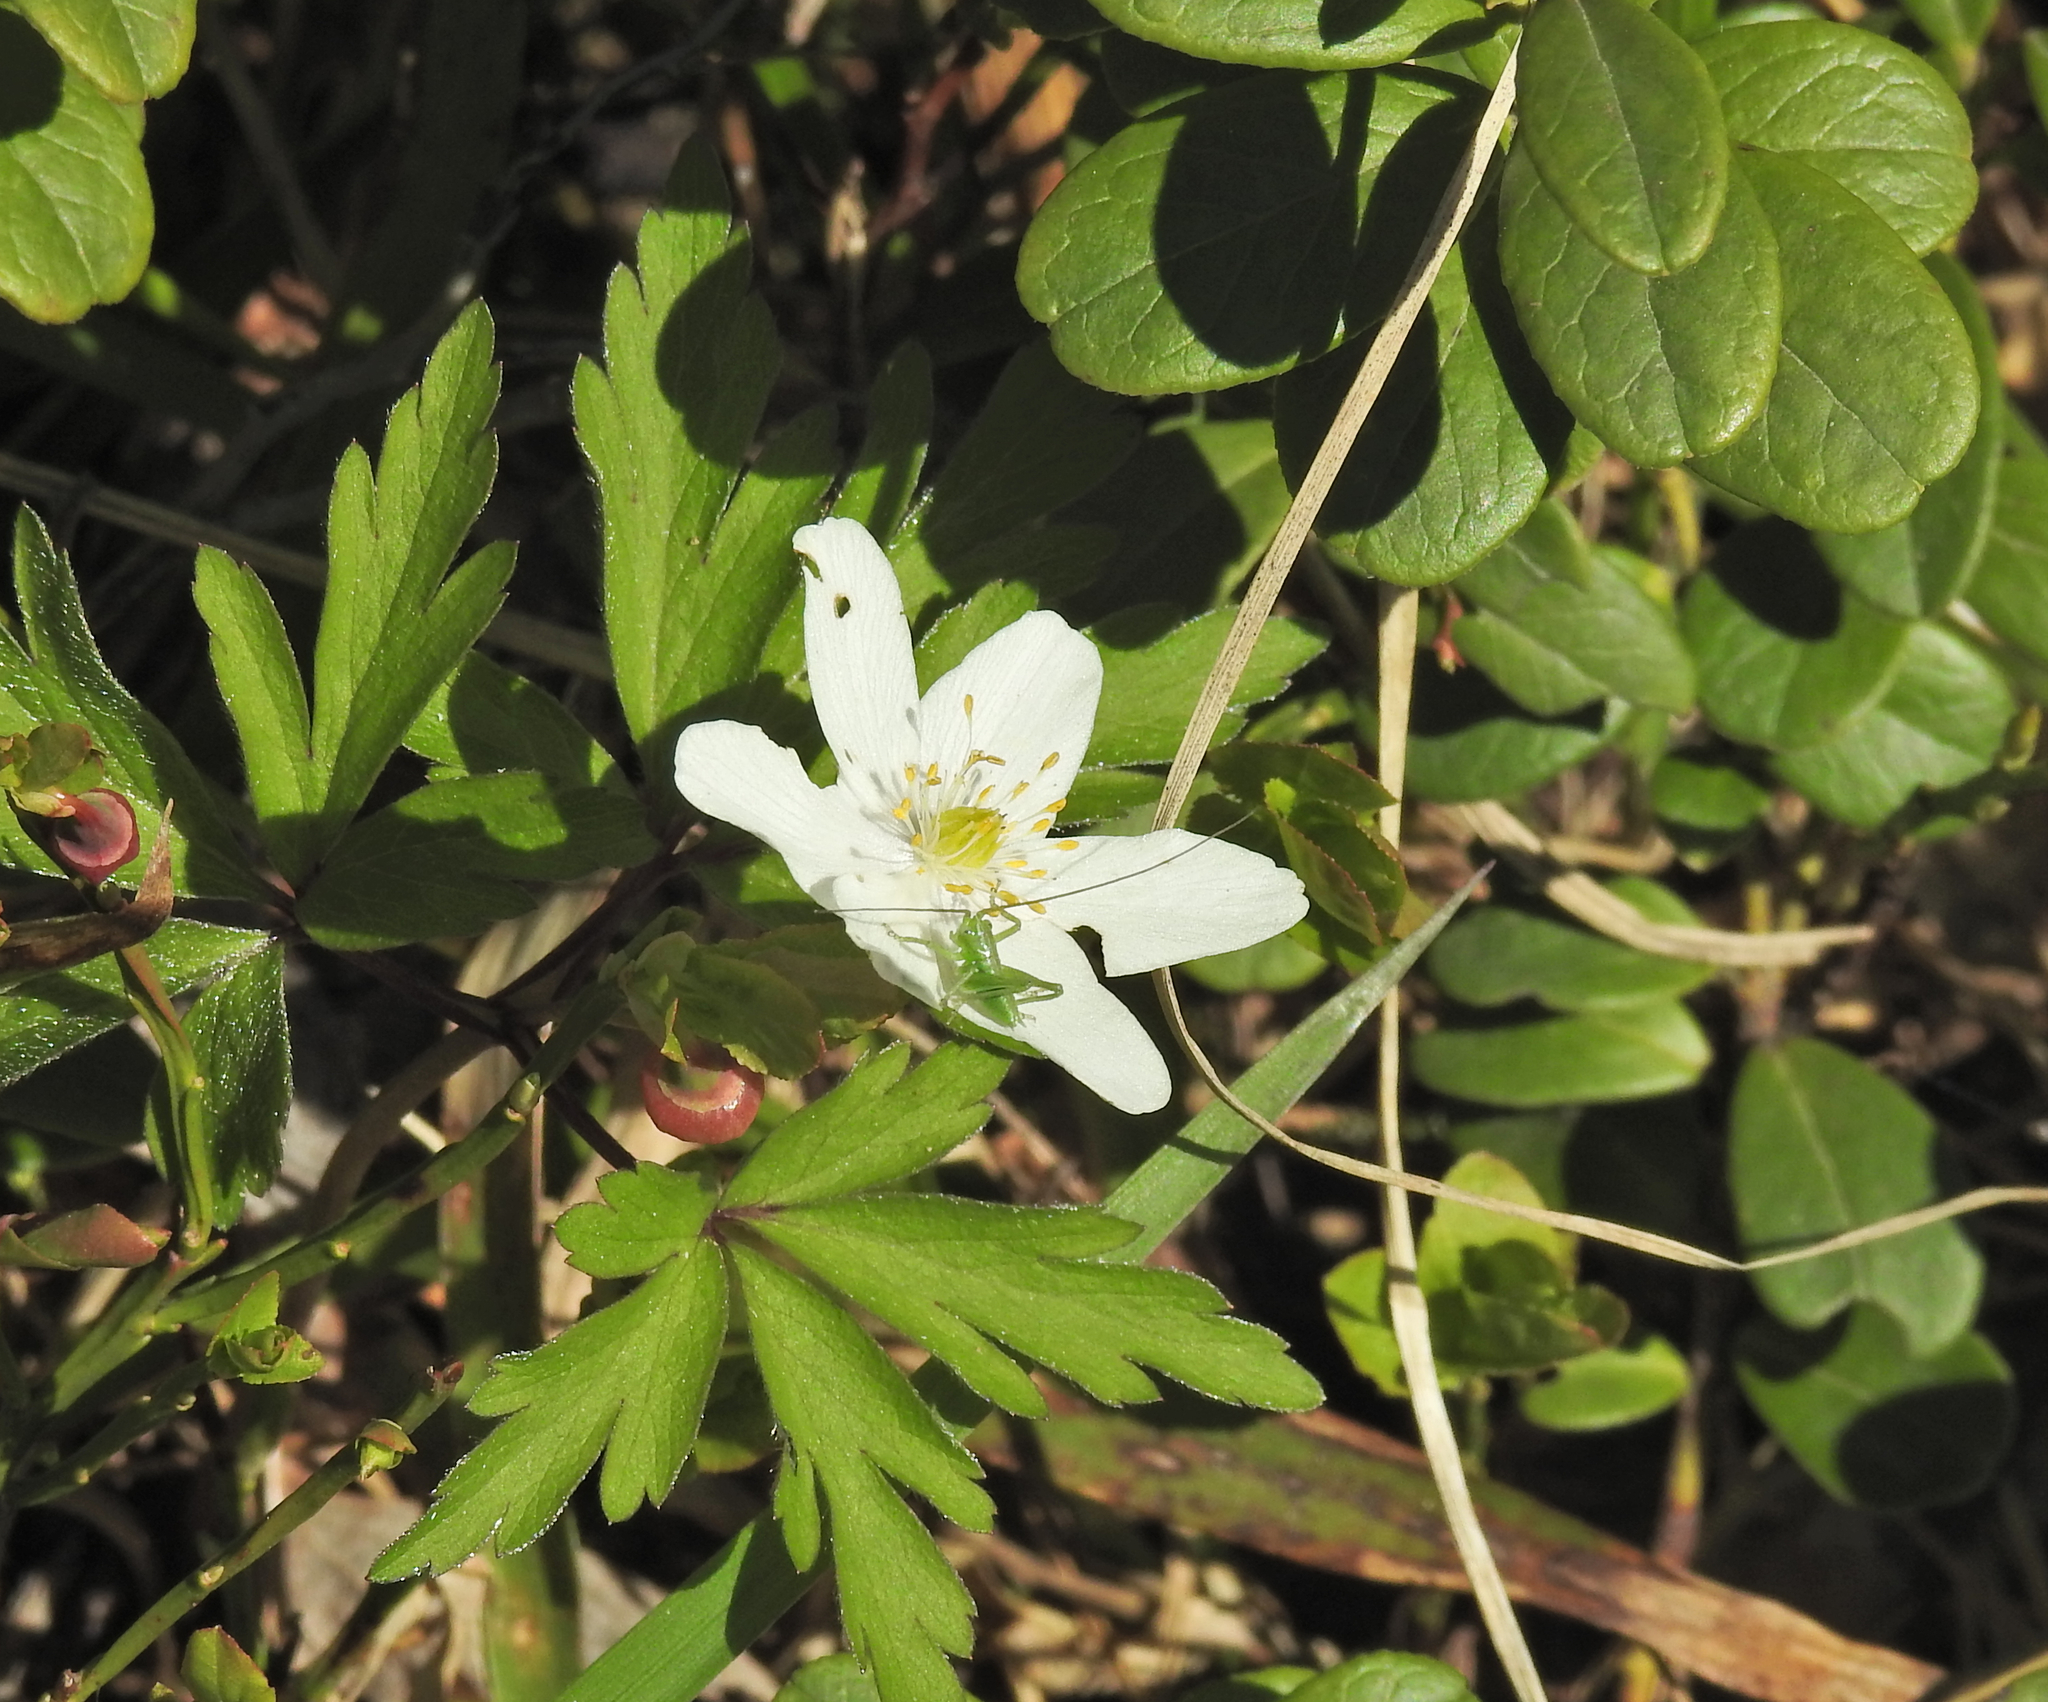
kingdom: Animalia
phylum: Arthropoda
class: Insecta
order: Orthoptera
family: Tettigoniidae
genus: Tettigonia
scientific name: Tettigonia cantans
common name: Upland green bush-cricket
